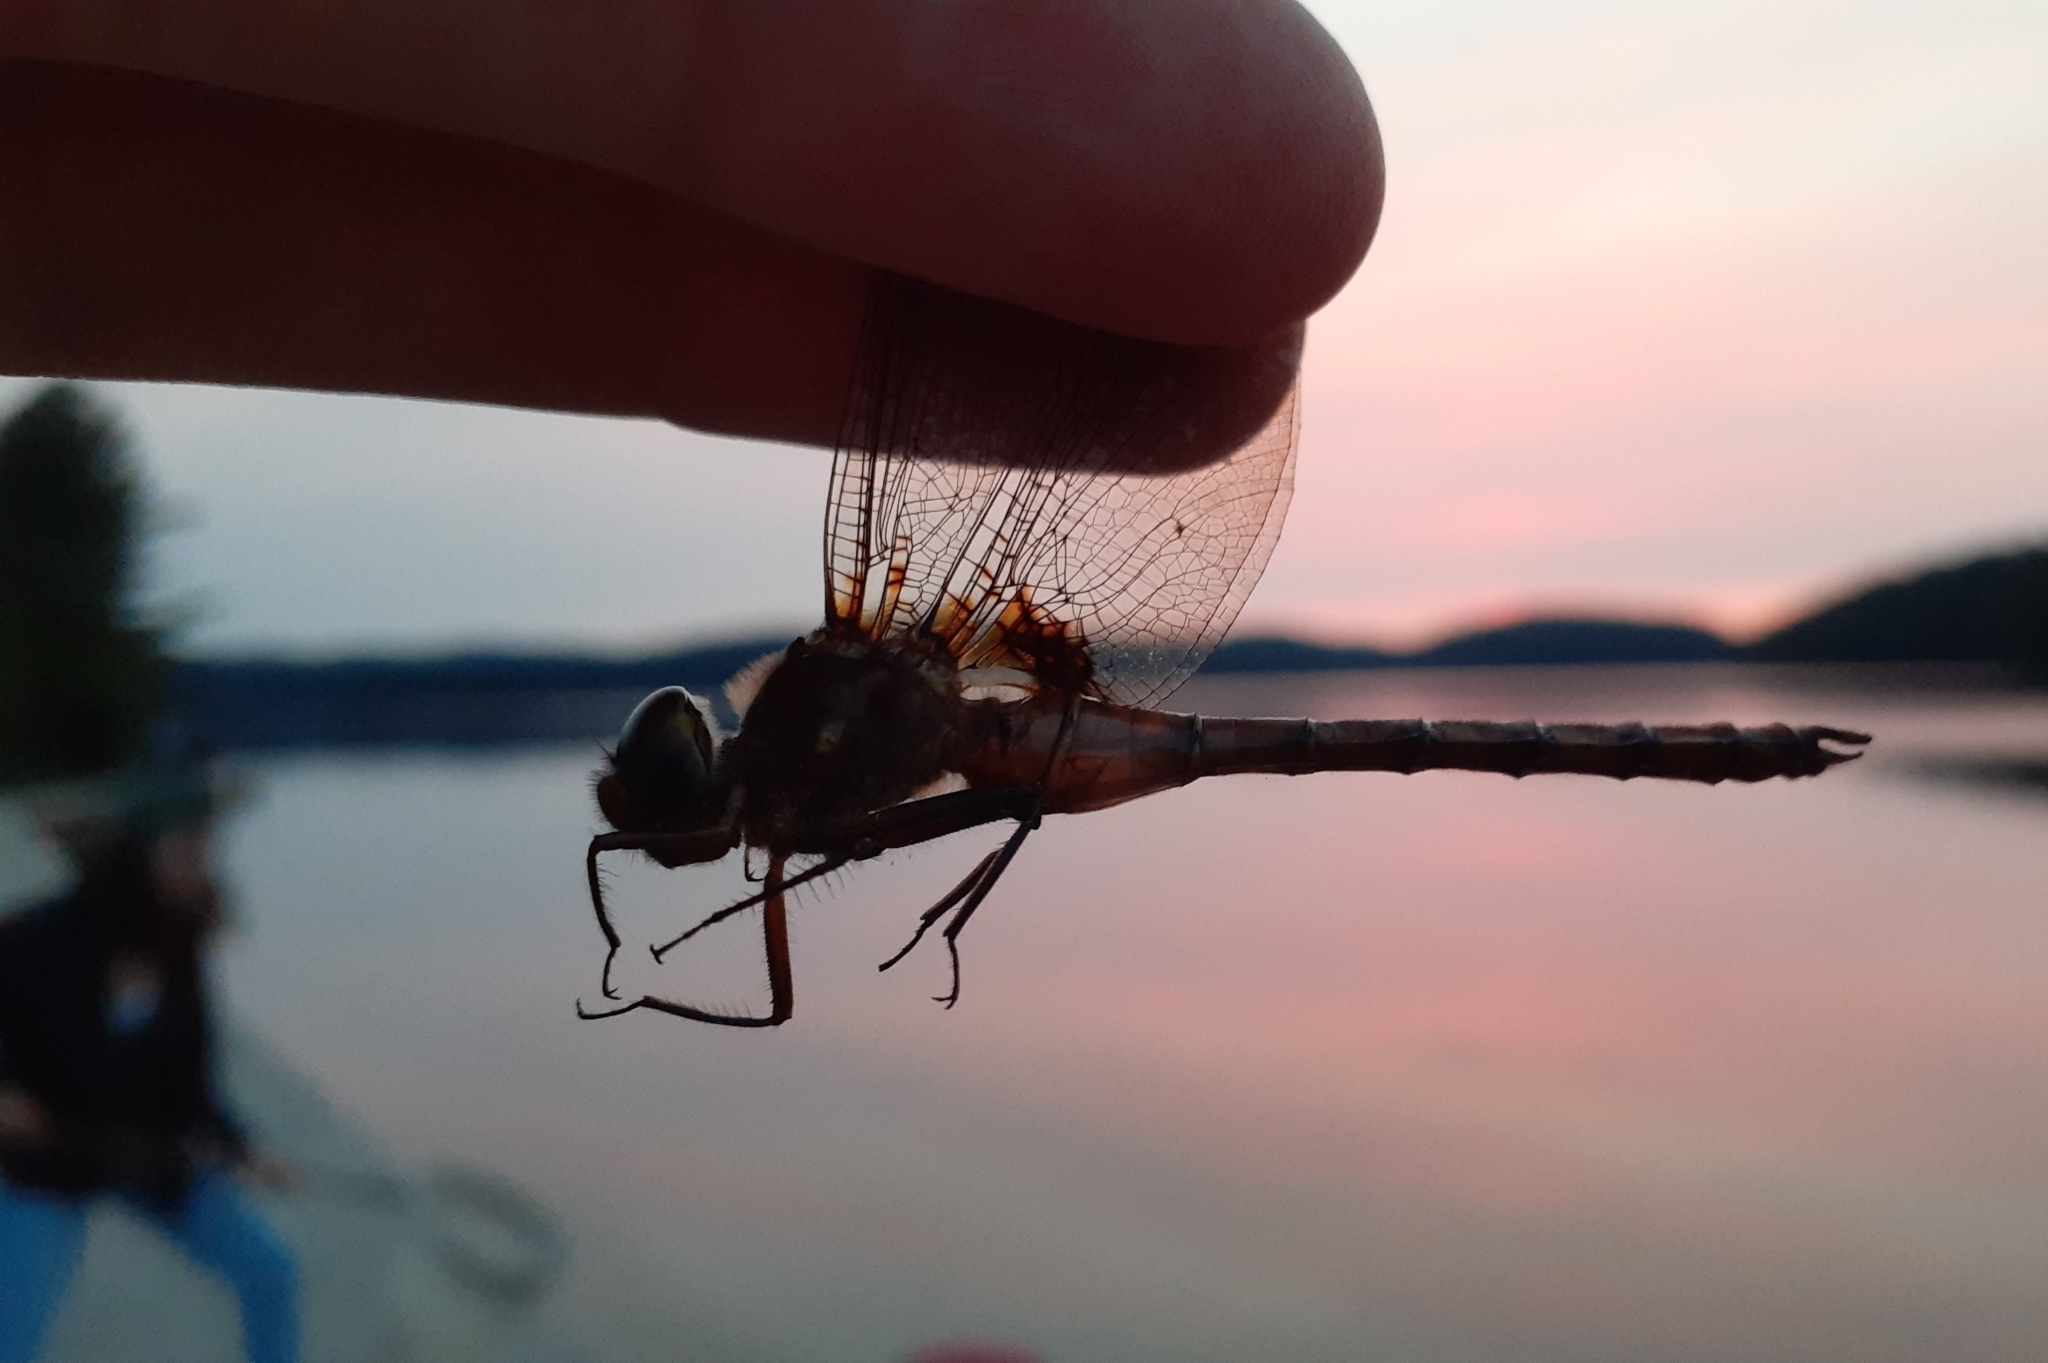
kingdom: Animalia
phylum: Arthropoda
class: Insecta
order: Odonata
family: Corduliidae
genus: Neurocordulia
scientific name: Neurocordulia yamaskanensis
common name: Stygian shadowdragon
